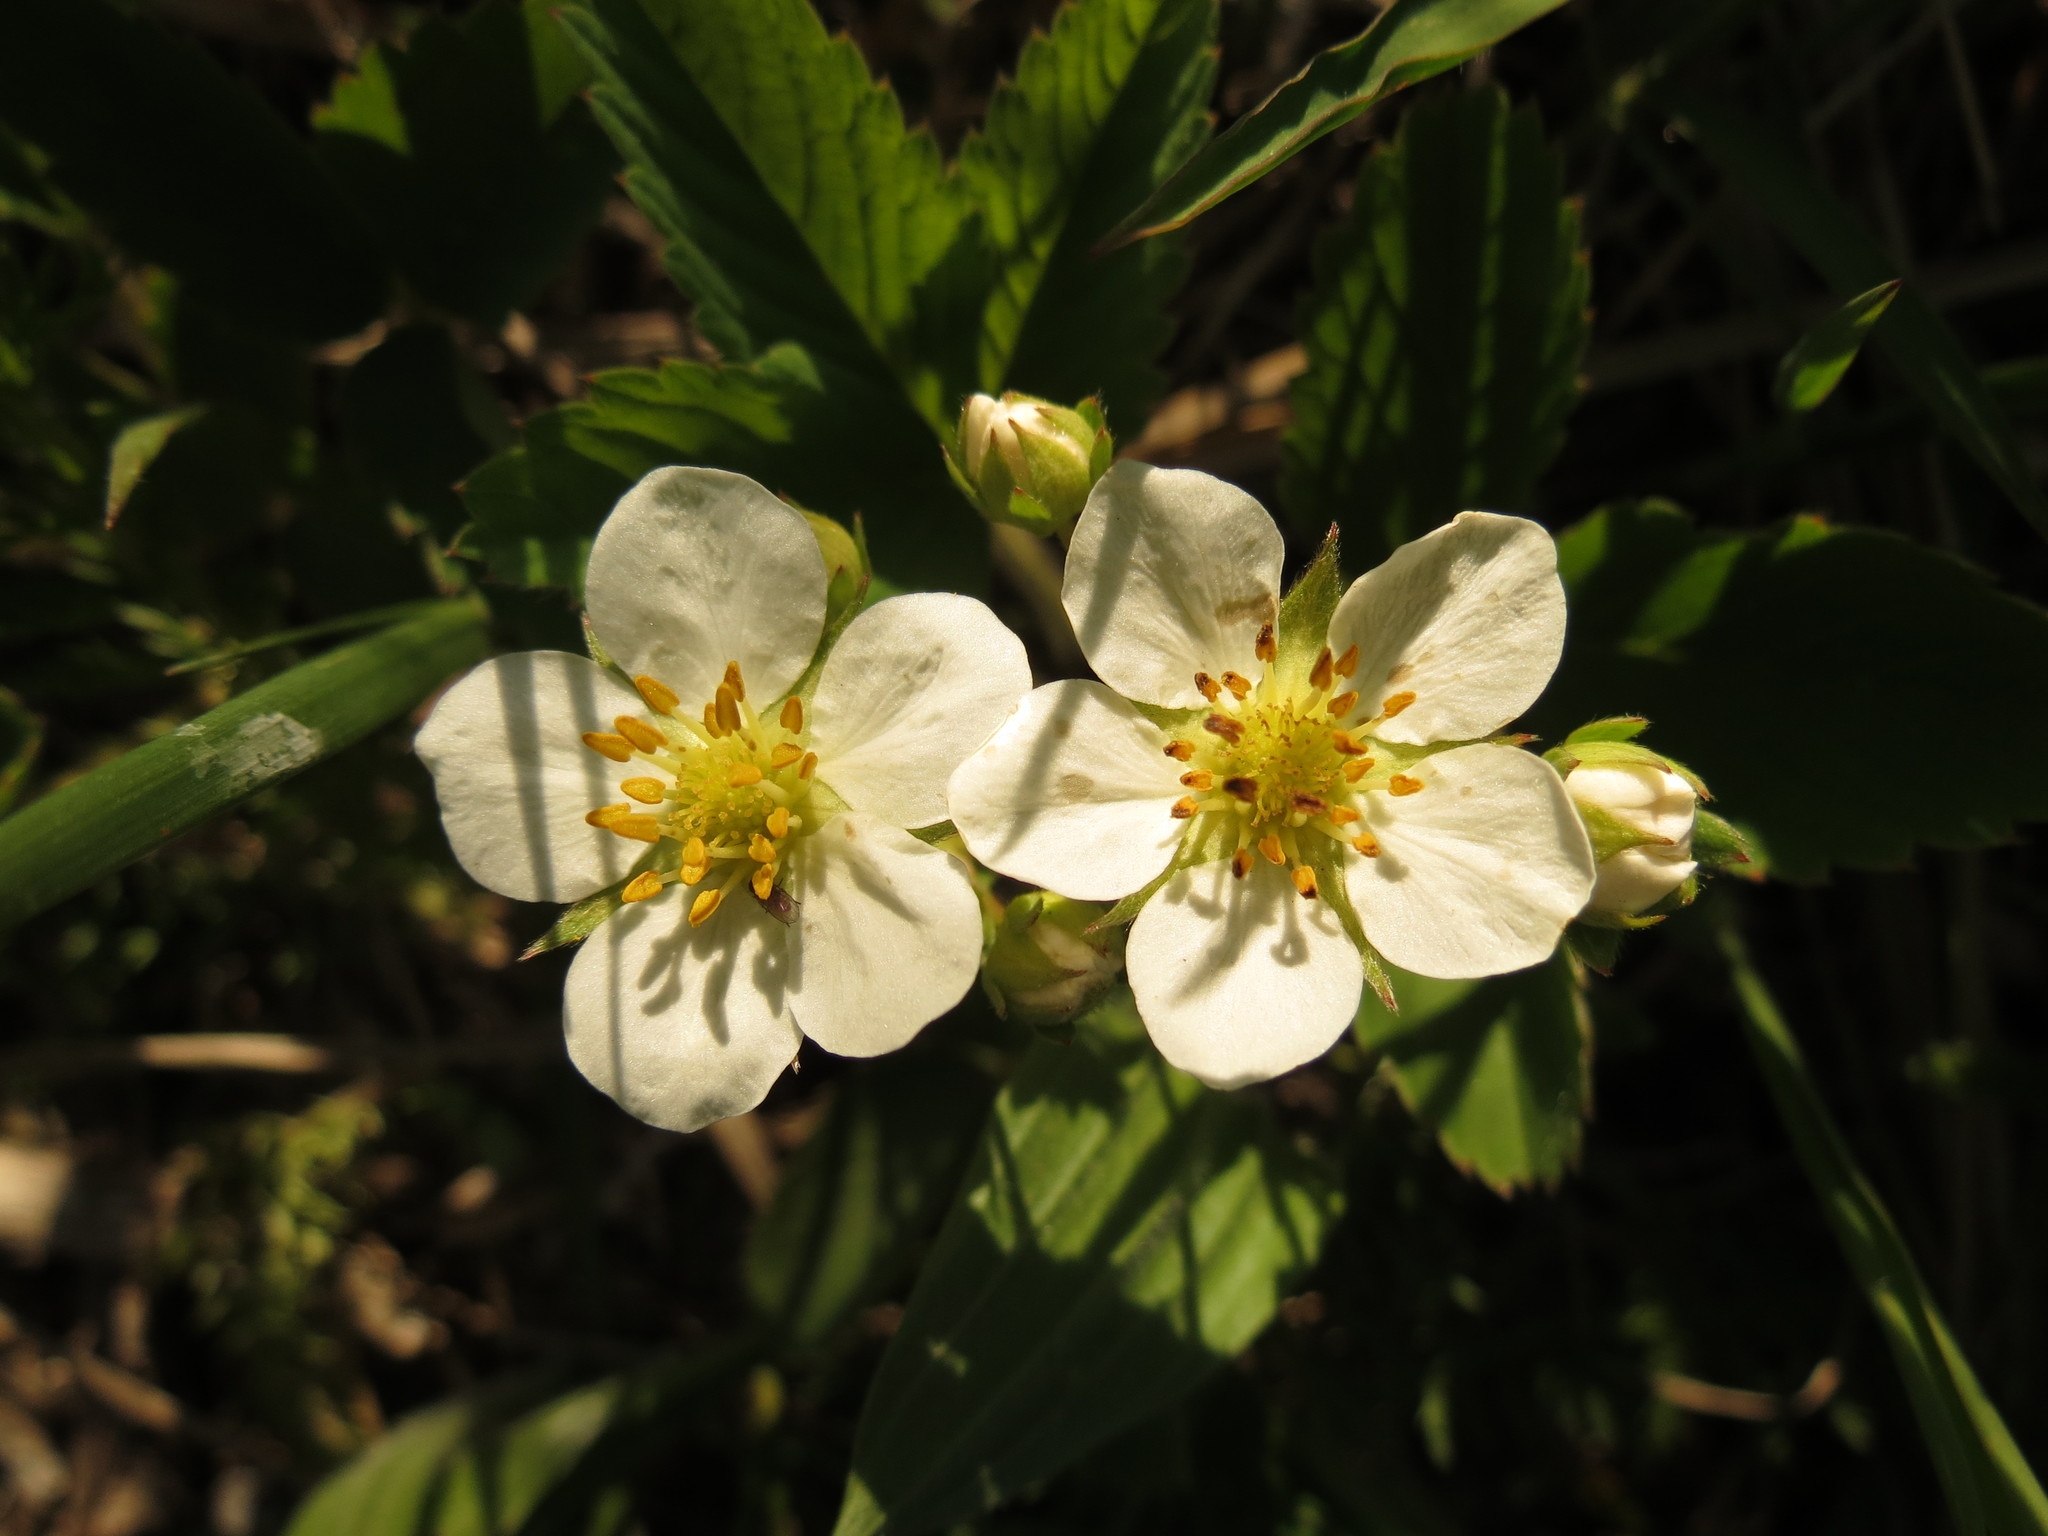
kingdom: Plantae
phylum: Tracheophyta
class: Magnoliopsida
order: Rosales
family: Rosaceae
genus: Fragaria
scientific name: Fragaria virginiana
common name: Thickleaved wild strawberry
